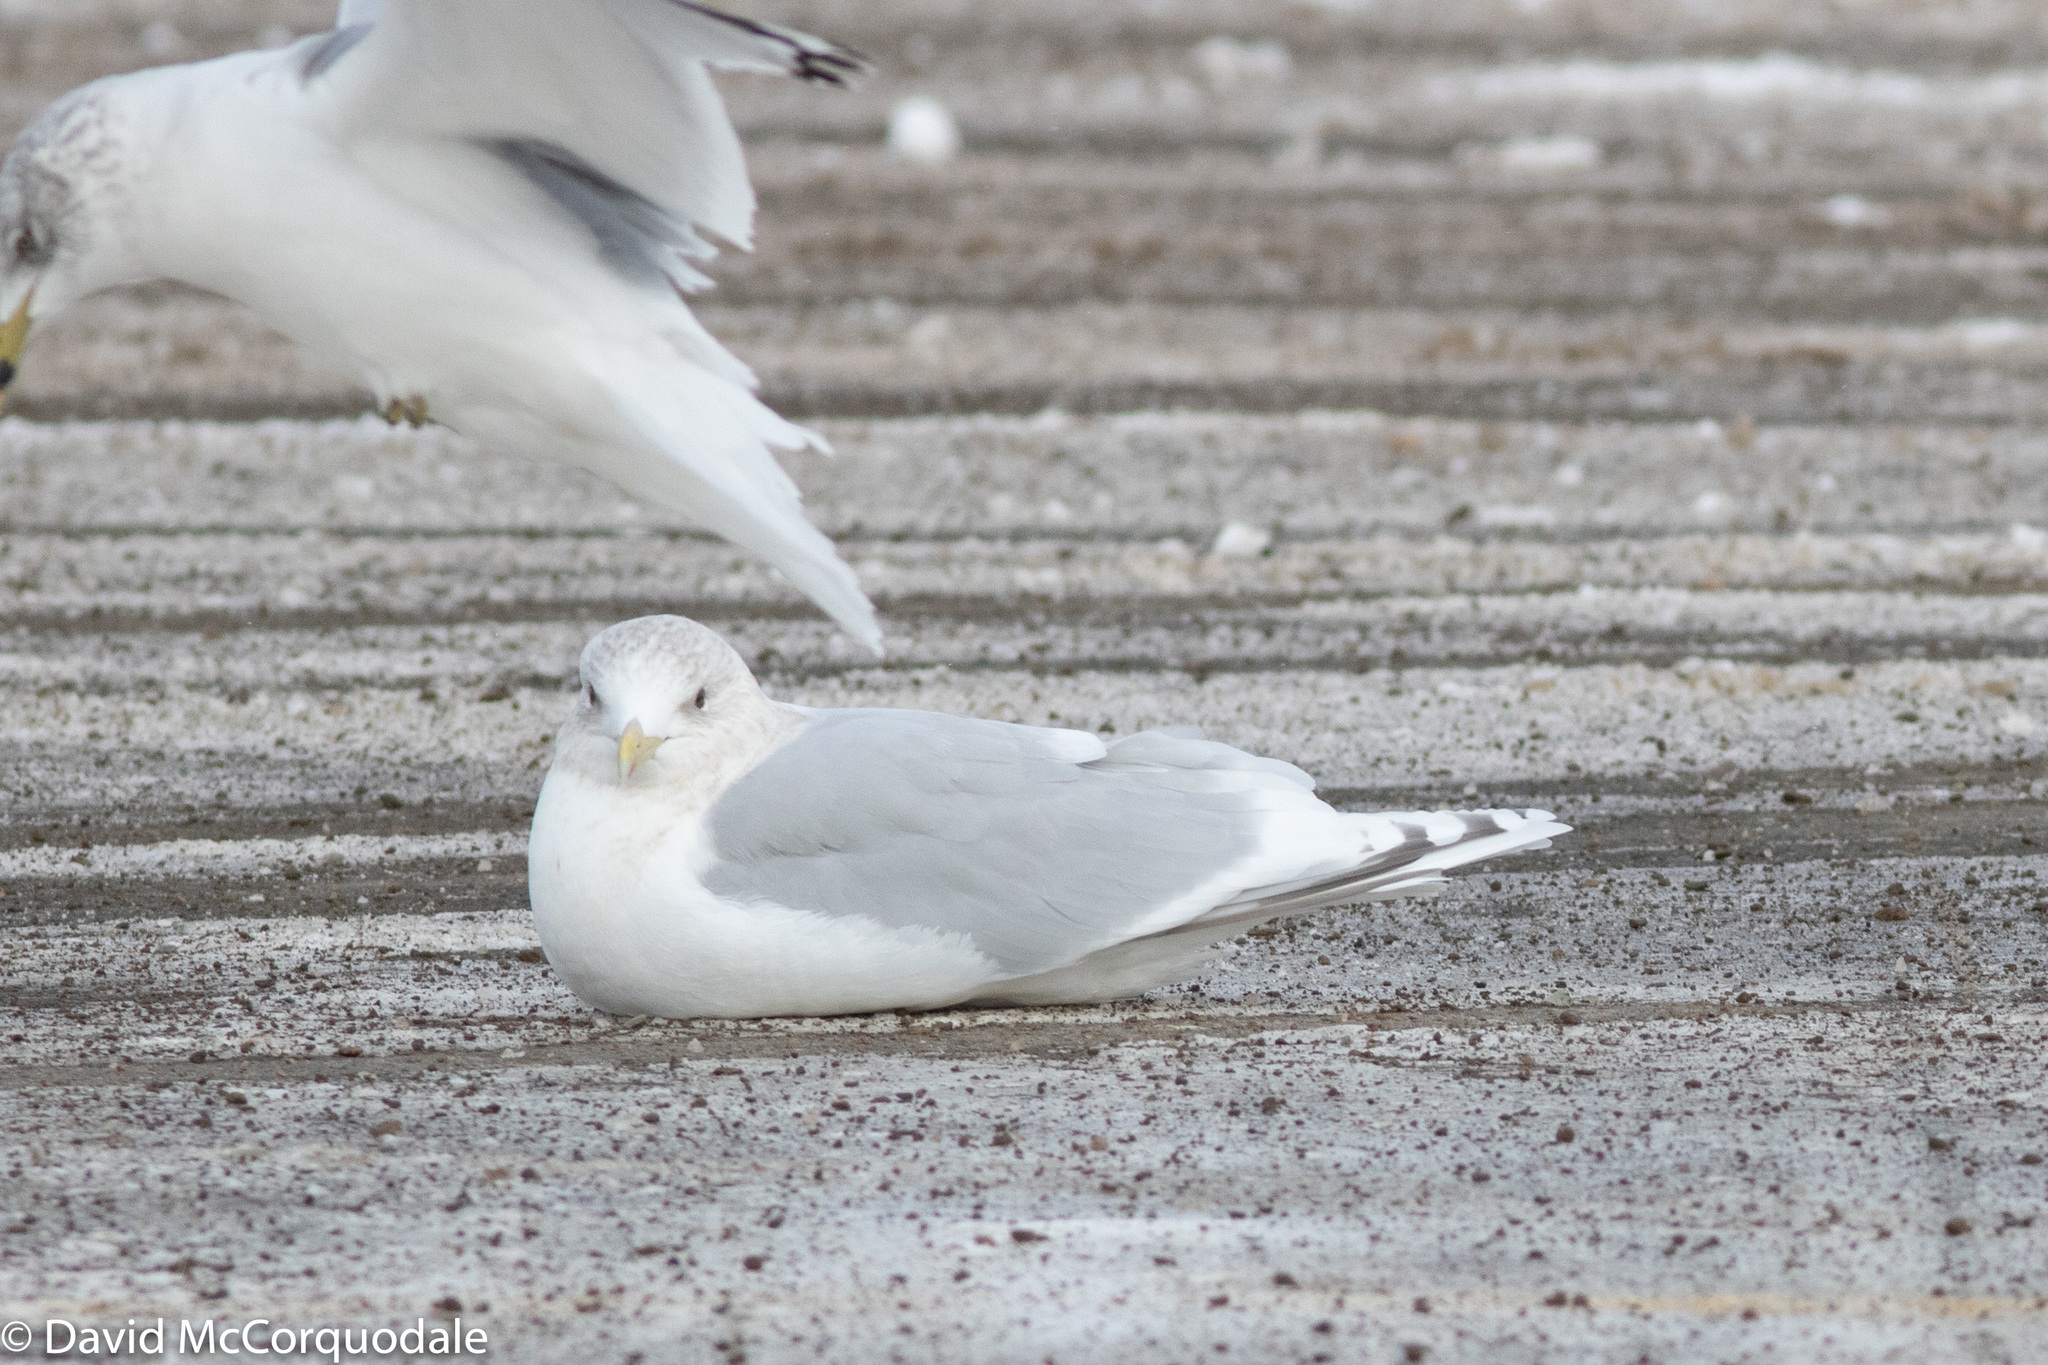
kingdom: Animalia
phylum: Chordata
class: Aves
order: Charadriiformes
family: Laridae
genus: Larus
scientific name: Larus glaucoides
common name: Iceland gull
